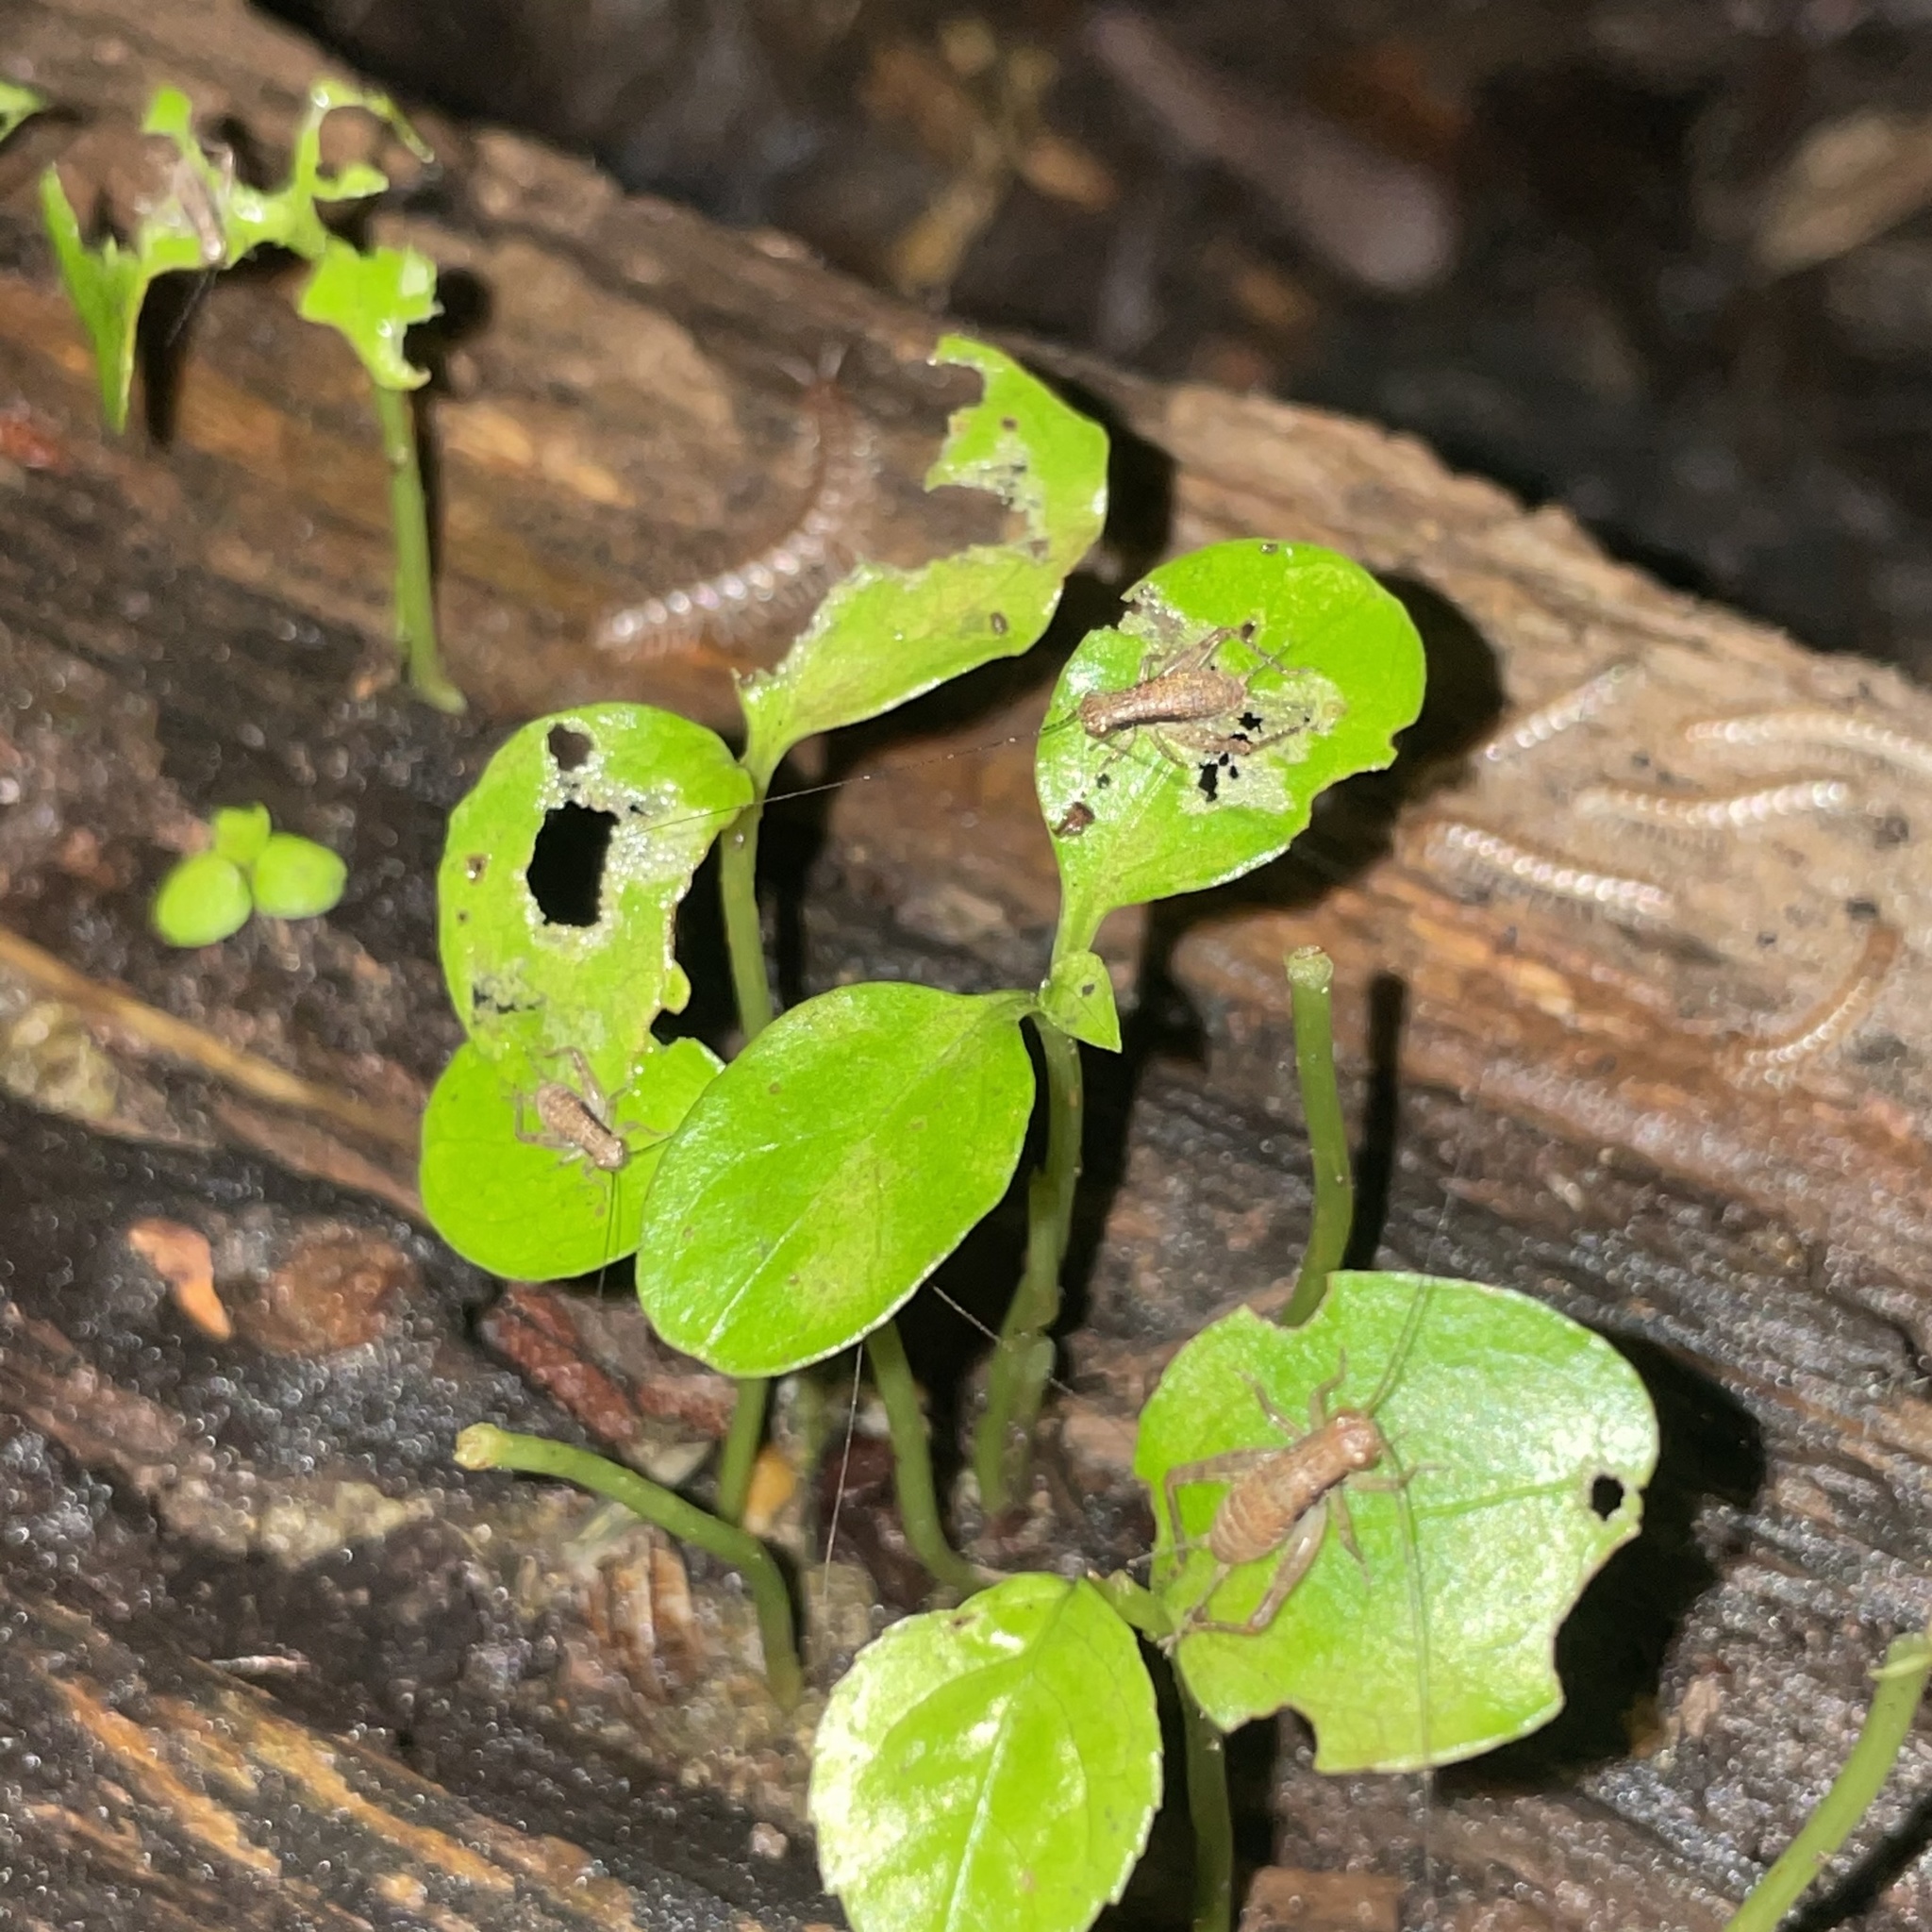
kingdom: Animalia
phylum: Arthropoda
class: Insecta
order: Orthoptera
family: Gryllidae
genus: Cardiodactylus
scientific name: Cardiodactylus guttulus
